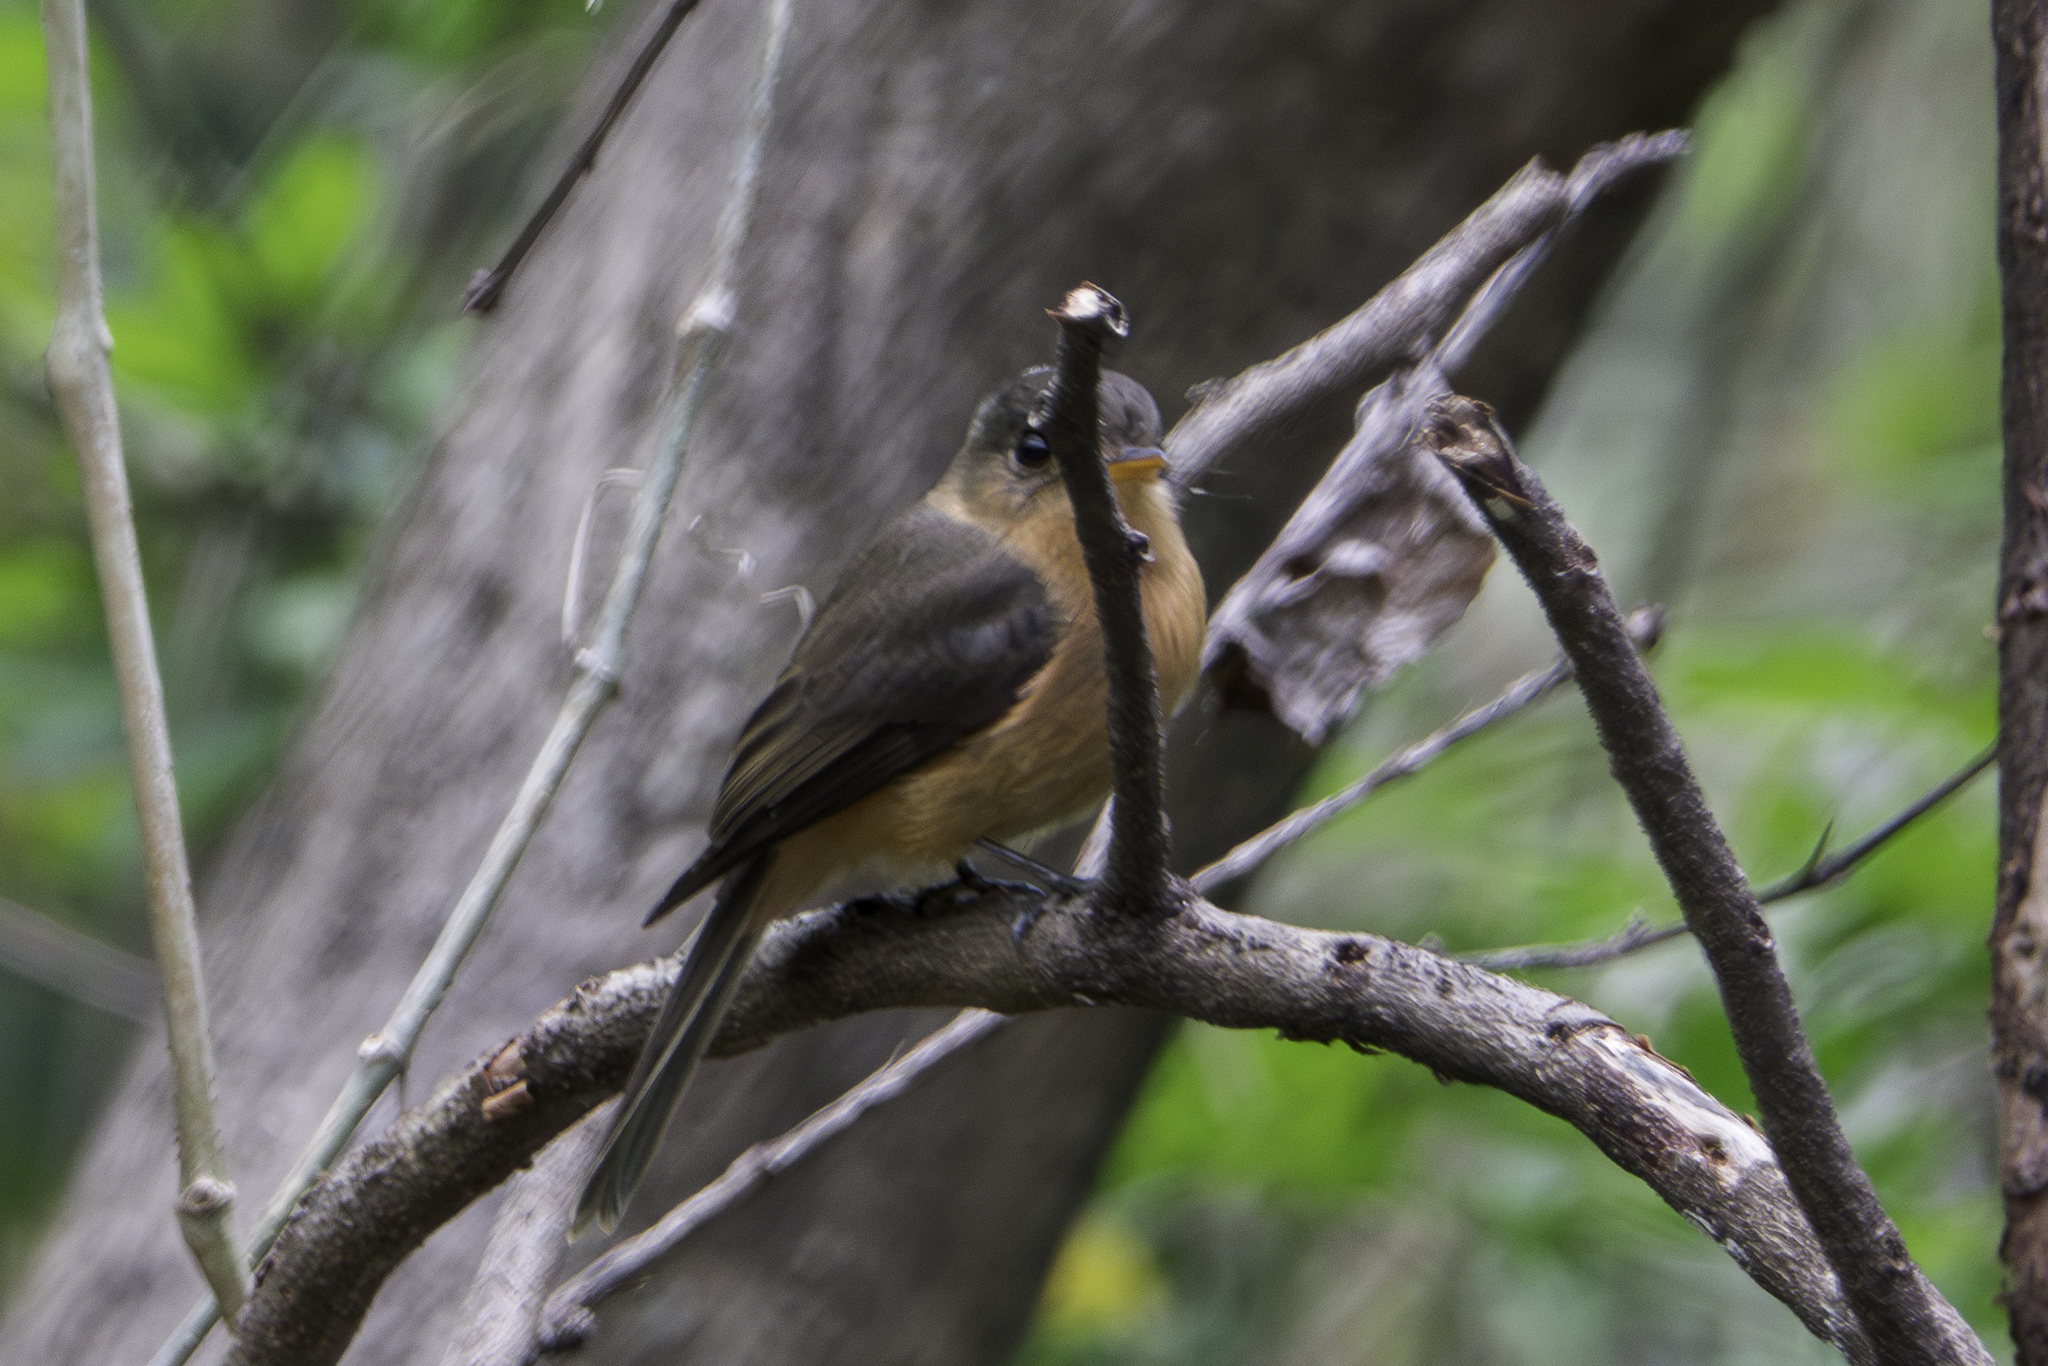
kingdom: Animalia
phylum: Chordata
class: Aves
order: Passeriformes
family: Tyrannidae
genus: Contopus
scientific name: Contopus latirostris
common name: Lesser antillean pewee
